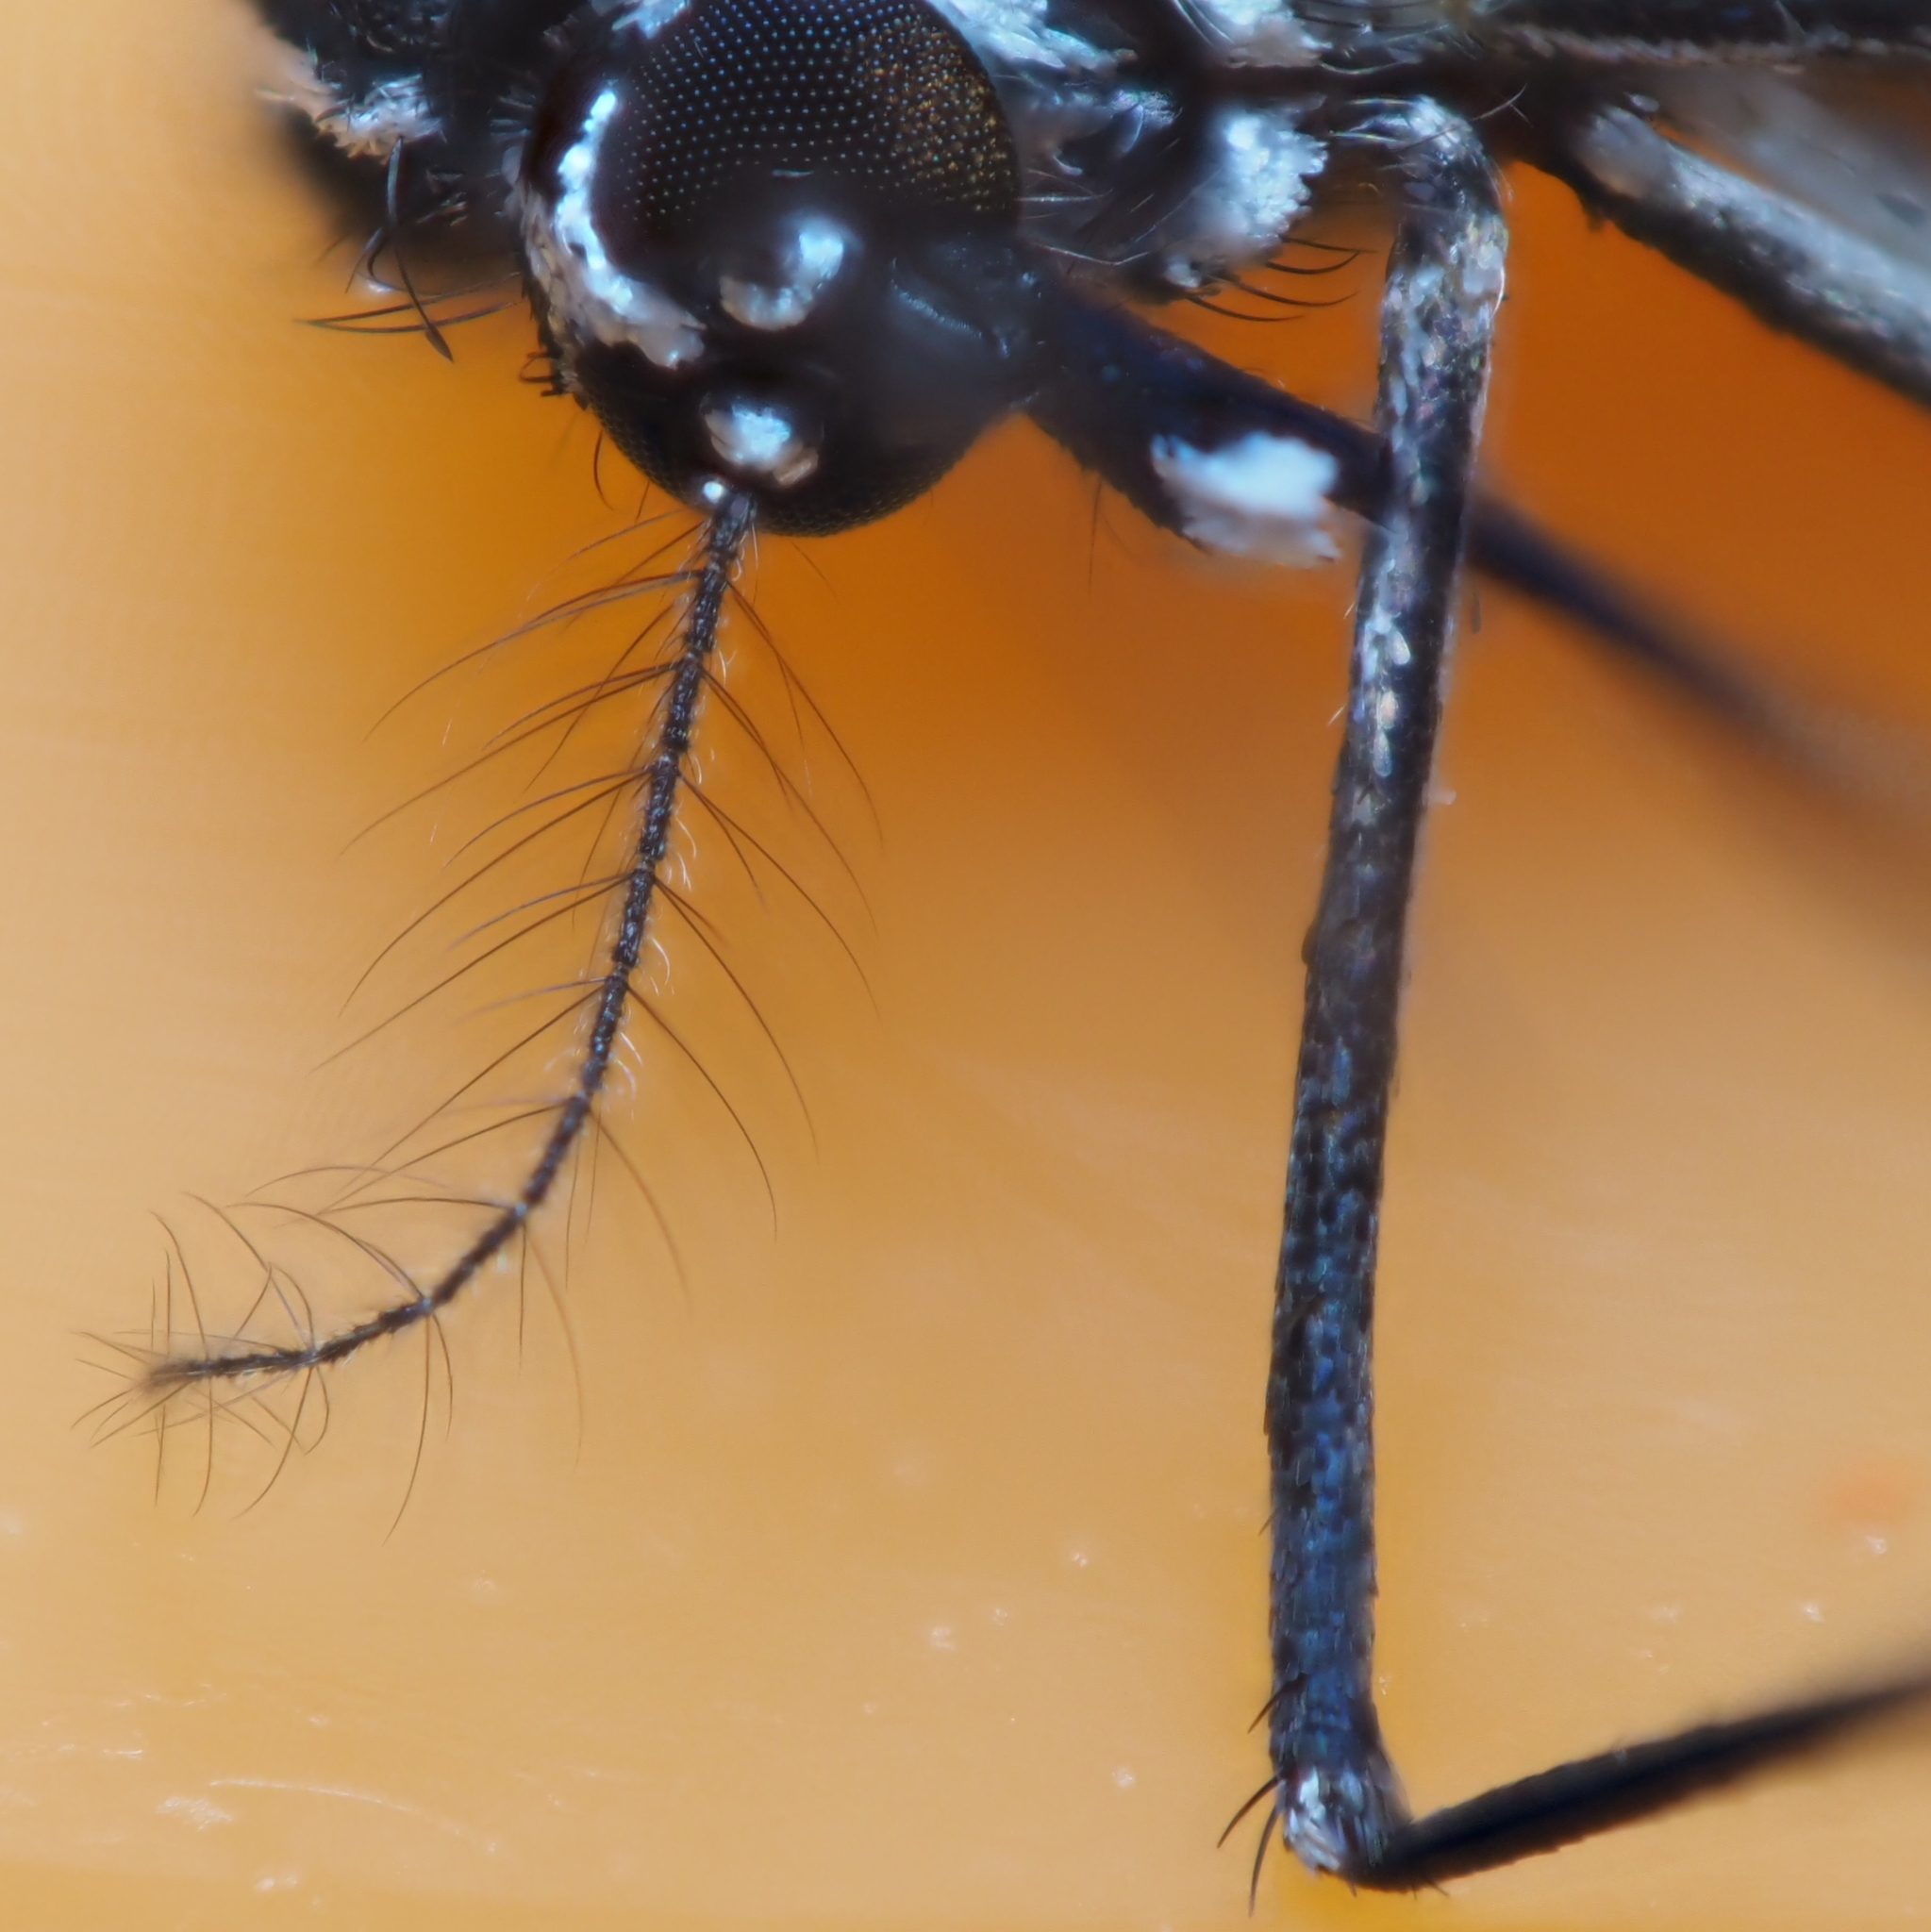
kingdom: Animalia
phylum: Arthropoda
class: Insecta
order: Diptera
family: Culicidae
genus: Aedes
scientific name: Aedes albopictus
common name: Tiger mosquito
